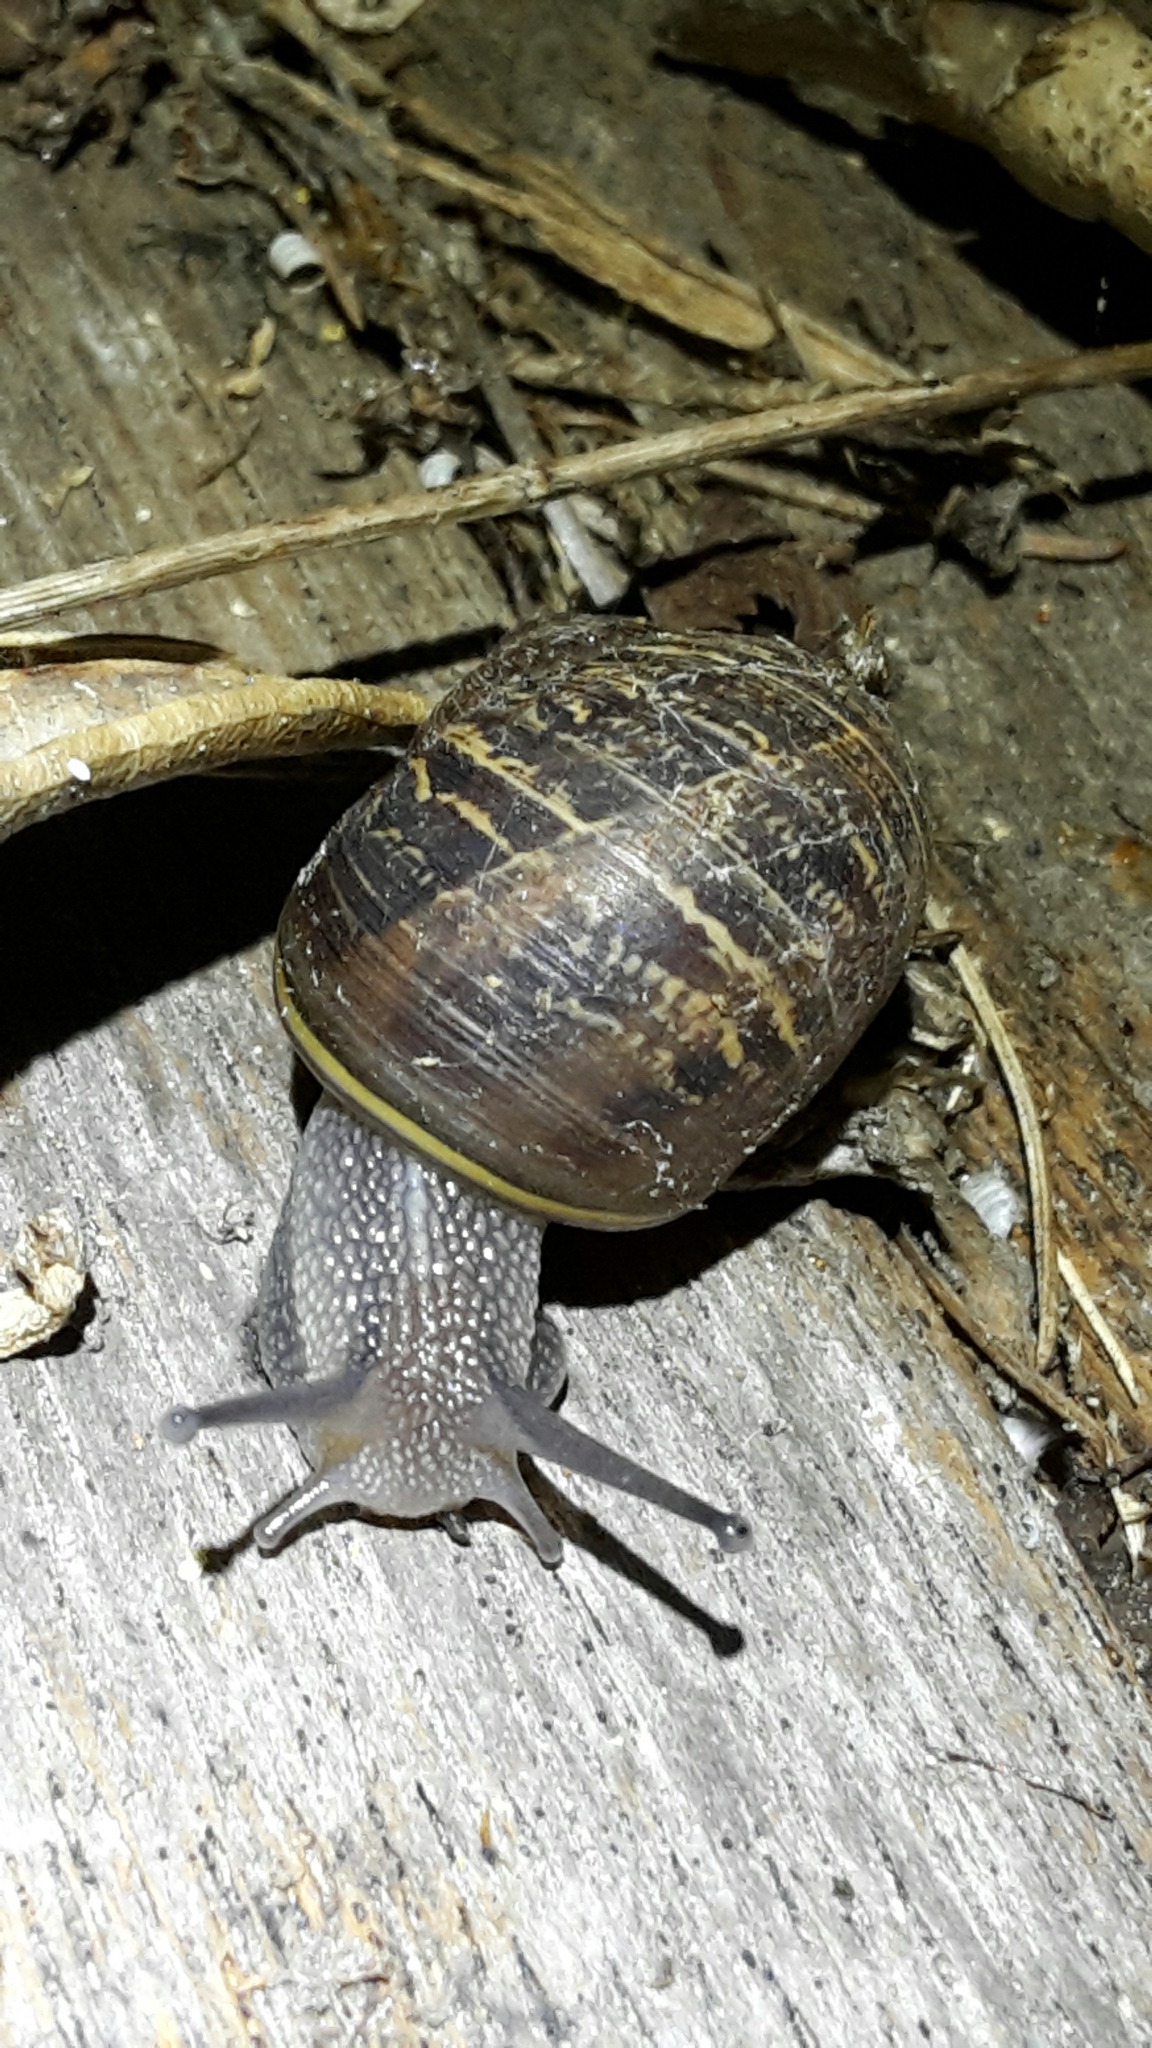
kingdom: Animalia
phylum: Mollusca
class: Gastropoda
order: Stylommatophora
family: Helicidae
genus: Cornu
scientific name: Cornu aspersum
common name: Brown garden snail
